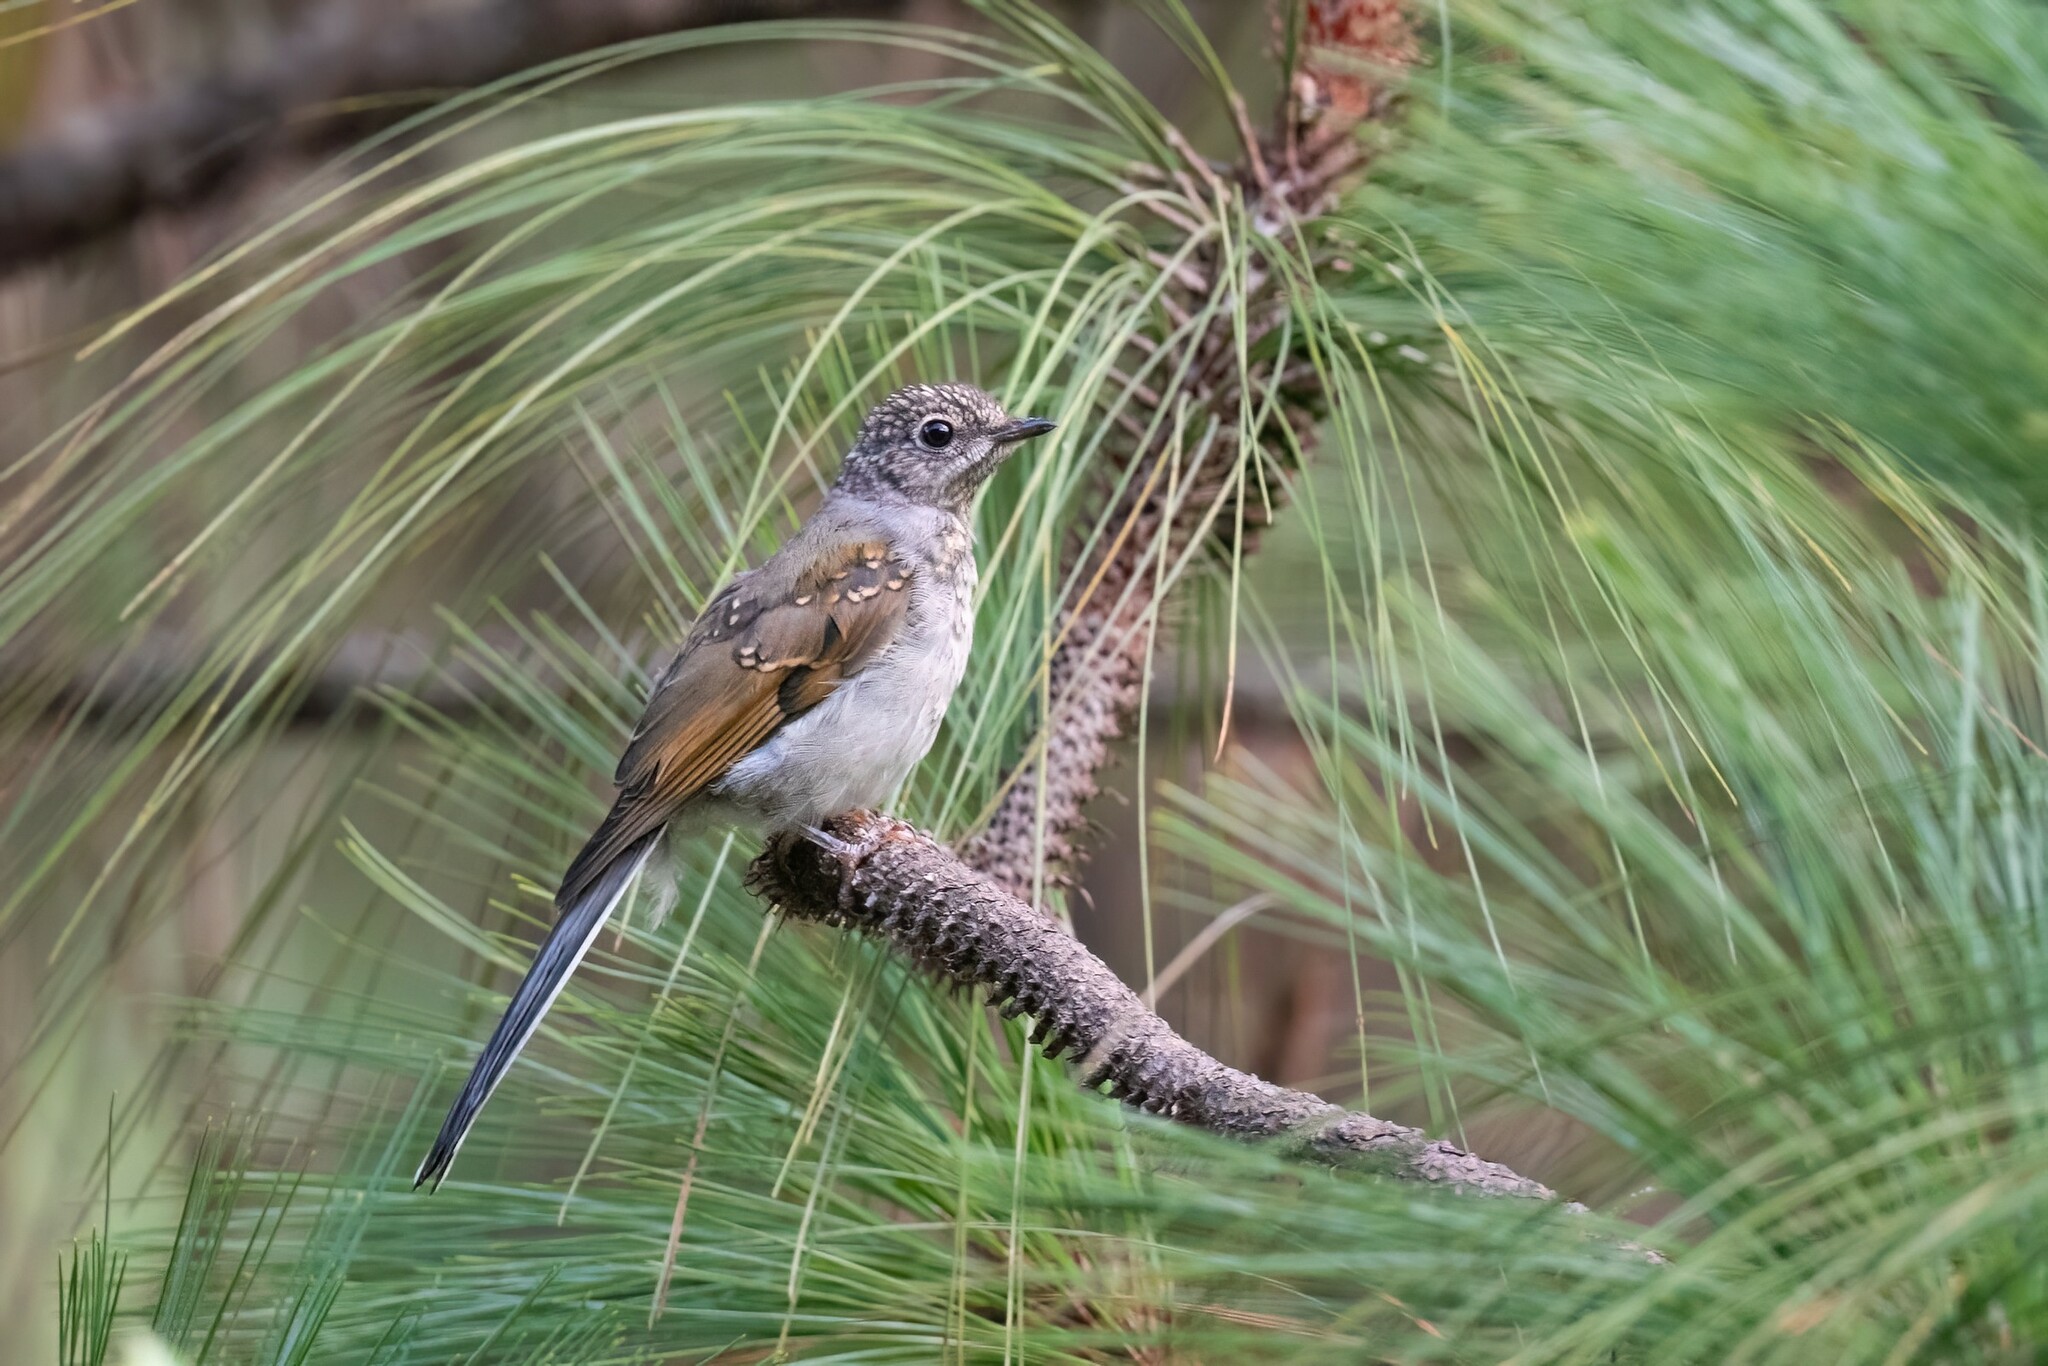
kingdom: Animalia
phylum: Chordata
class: Aves
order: Passeriformes
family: Turdidae
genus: Myadestes
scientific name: Myadestes occidentalis
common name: Brown-backed solitaire
